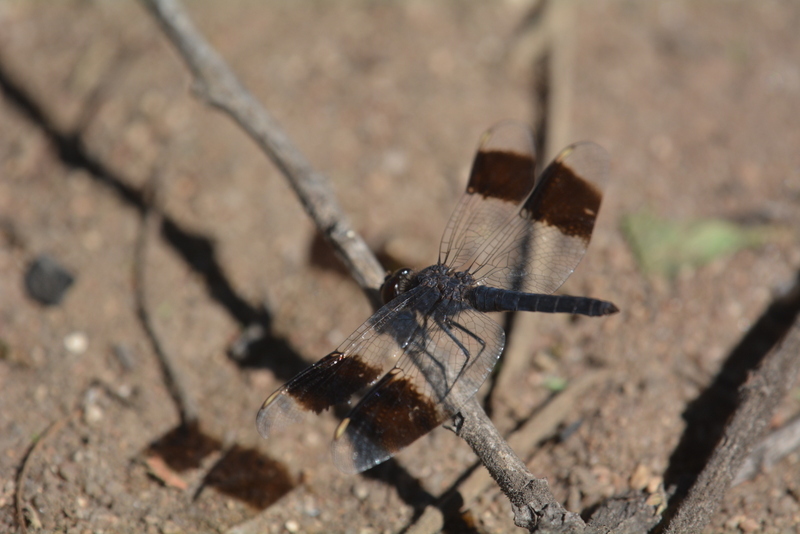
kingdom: Animalia
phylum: Arthropoda
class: Insecta
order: Odonata
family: Libellulidae
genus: Brachythemis
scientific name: Brachythemis leucosticta
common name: Banded groundling
